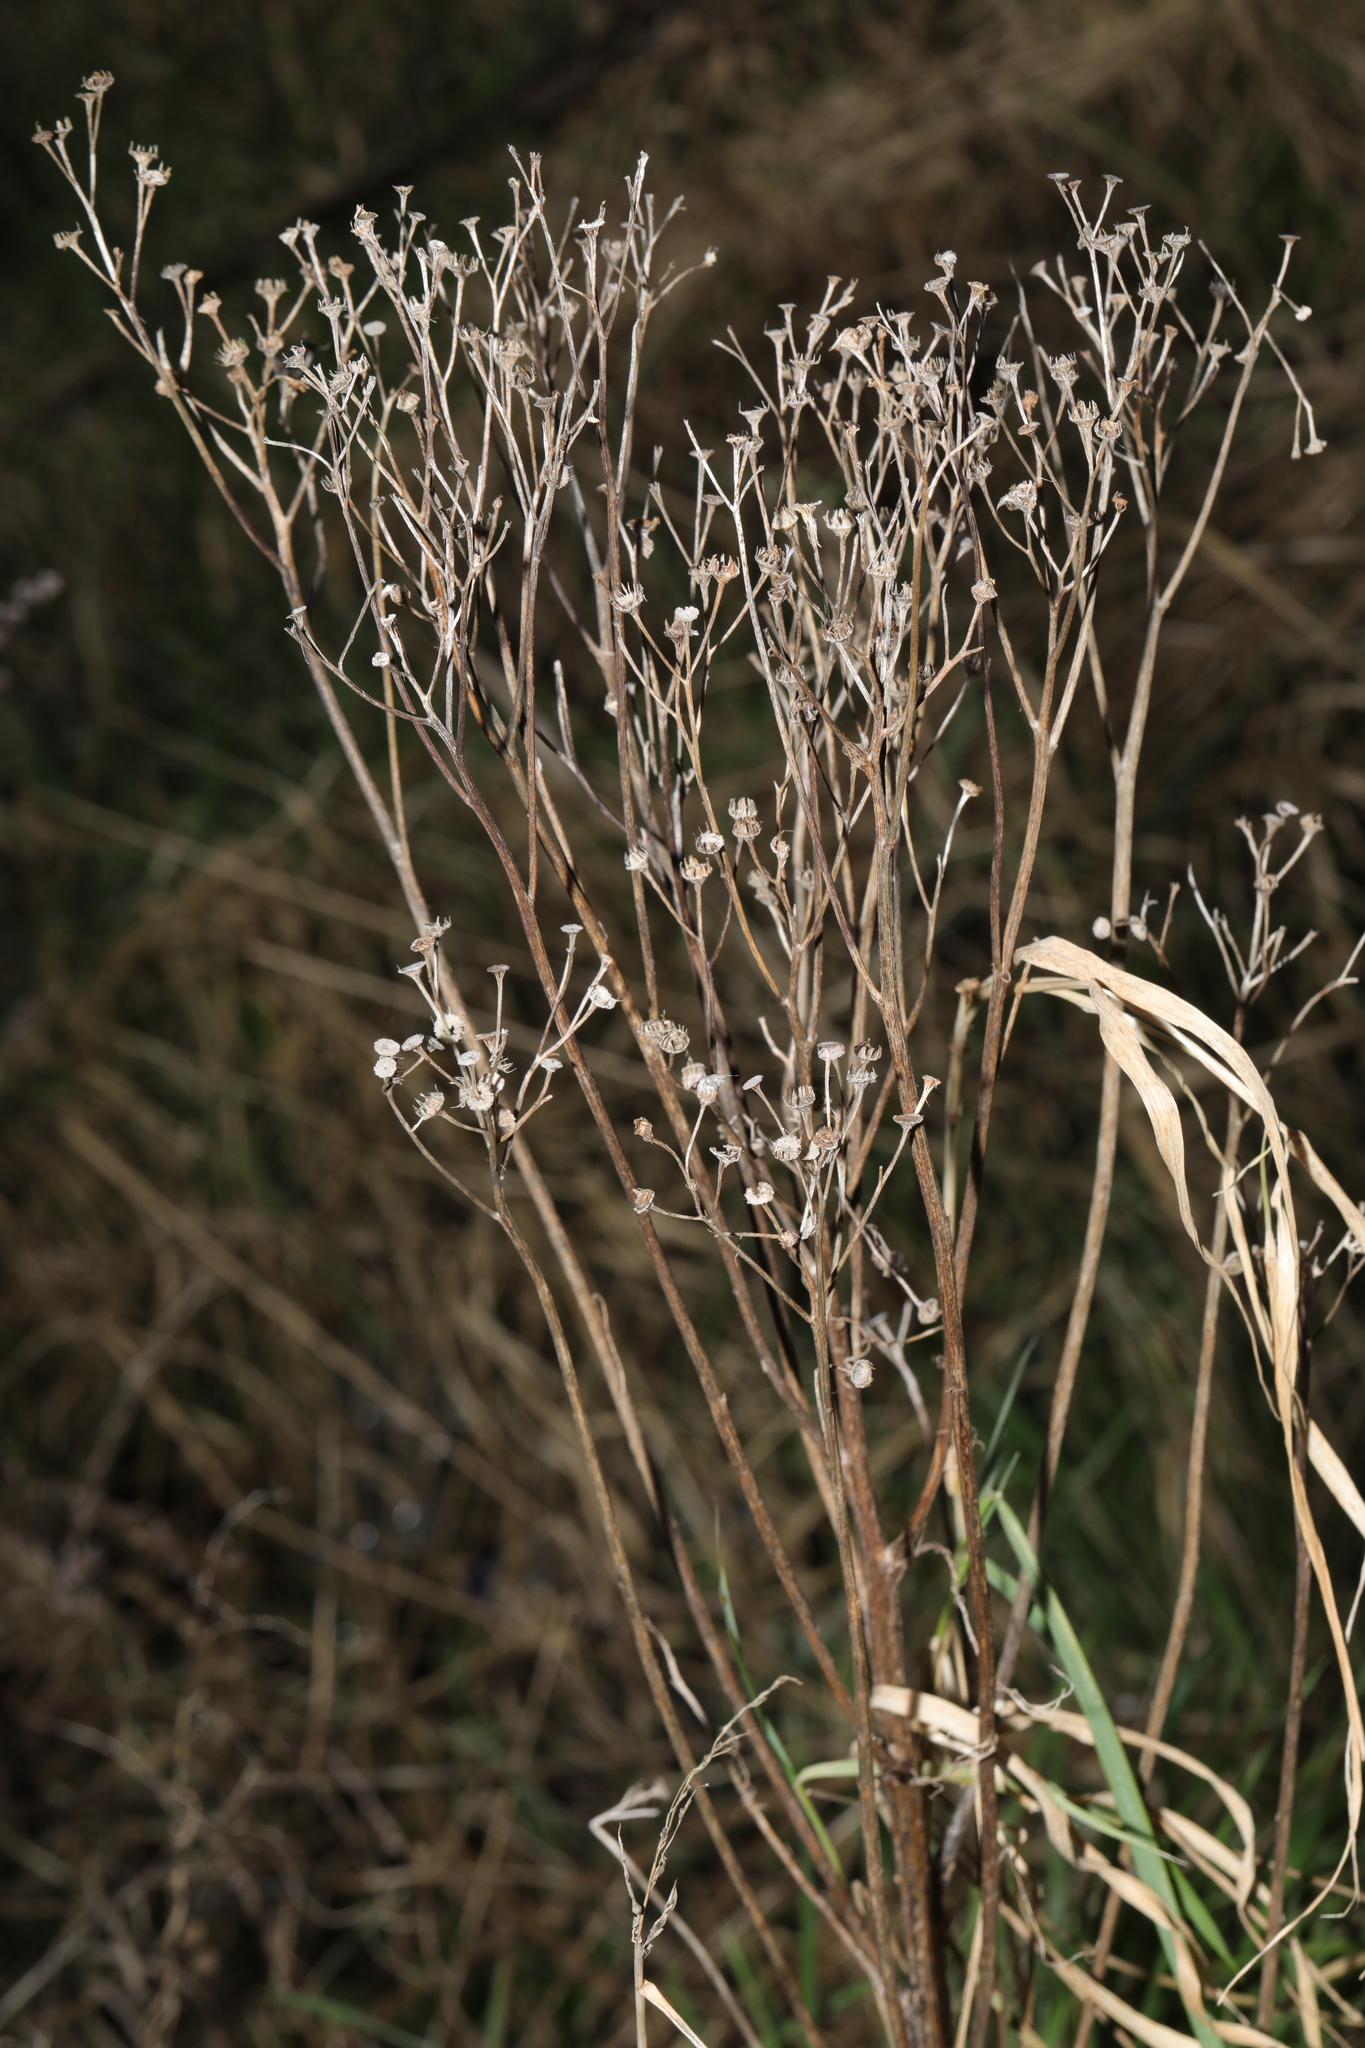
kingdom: Plantae
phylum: Tracheophyta
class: Magnoliopsida
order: Asterales
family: Asteraceae
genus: Tanacetum
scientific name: Tanacetum vulgare
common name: Common tansy
